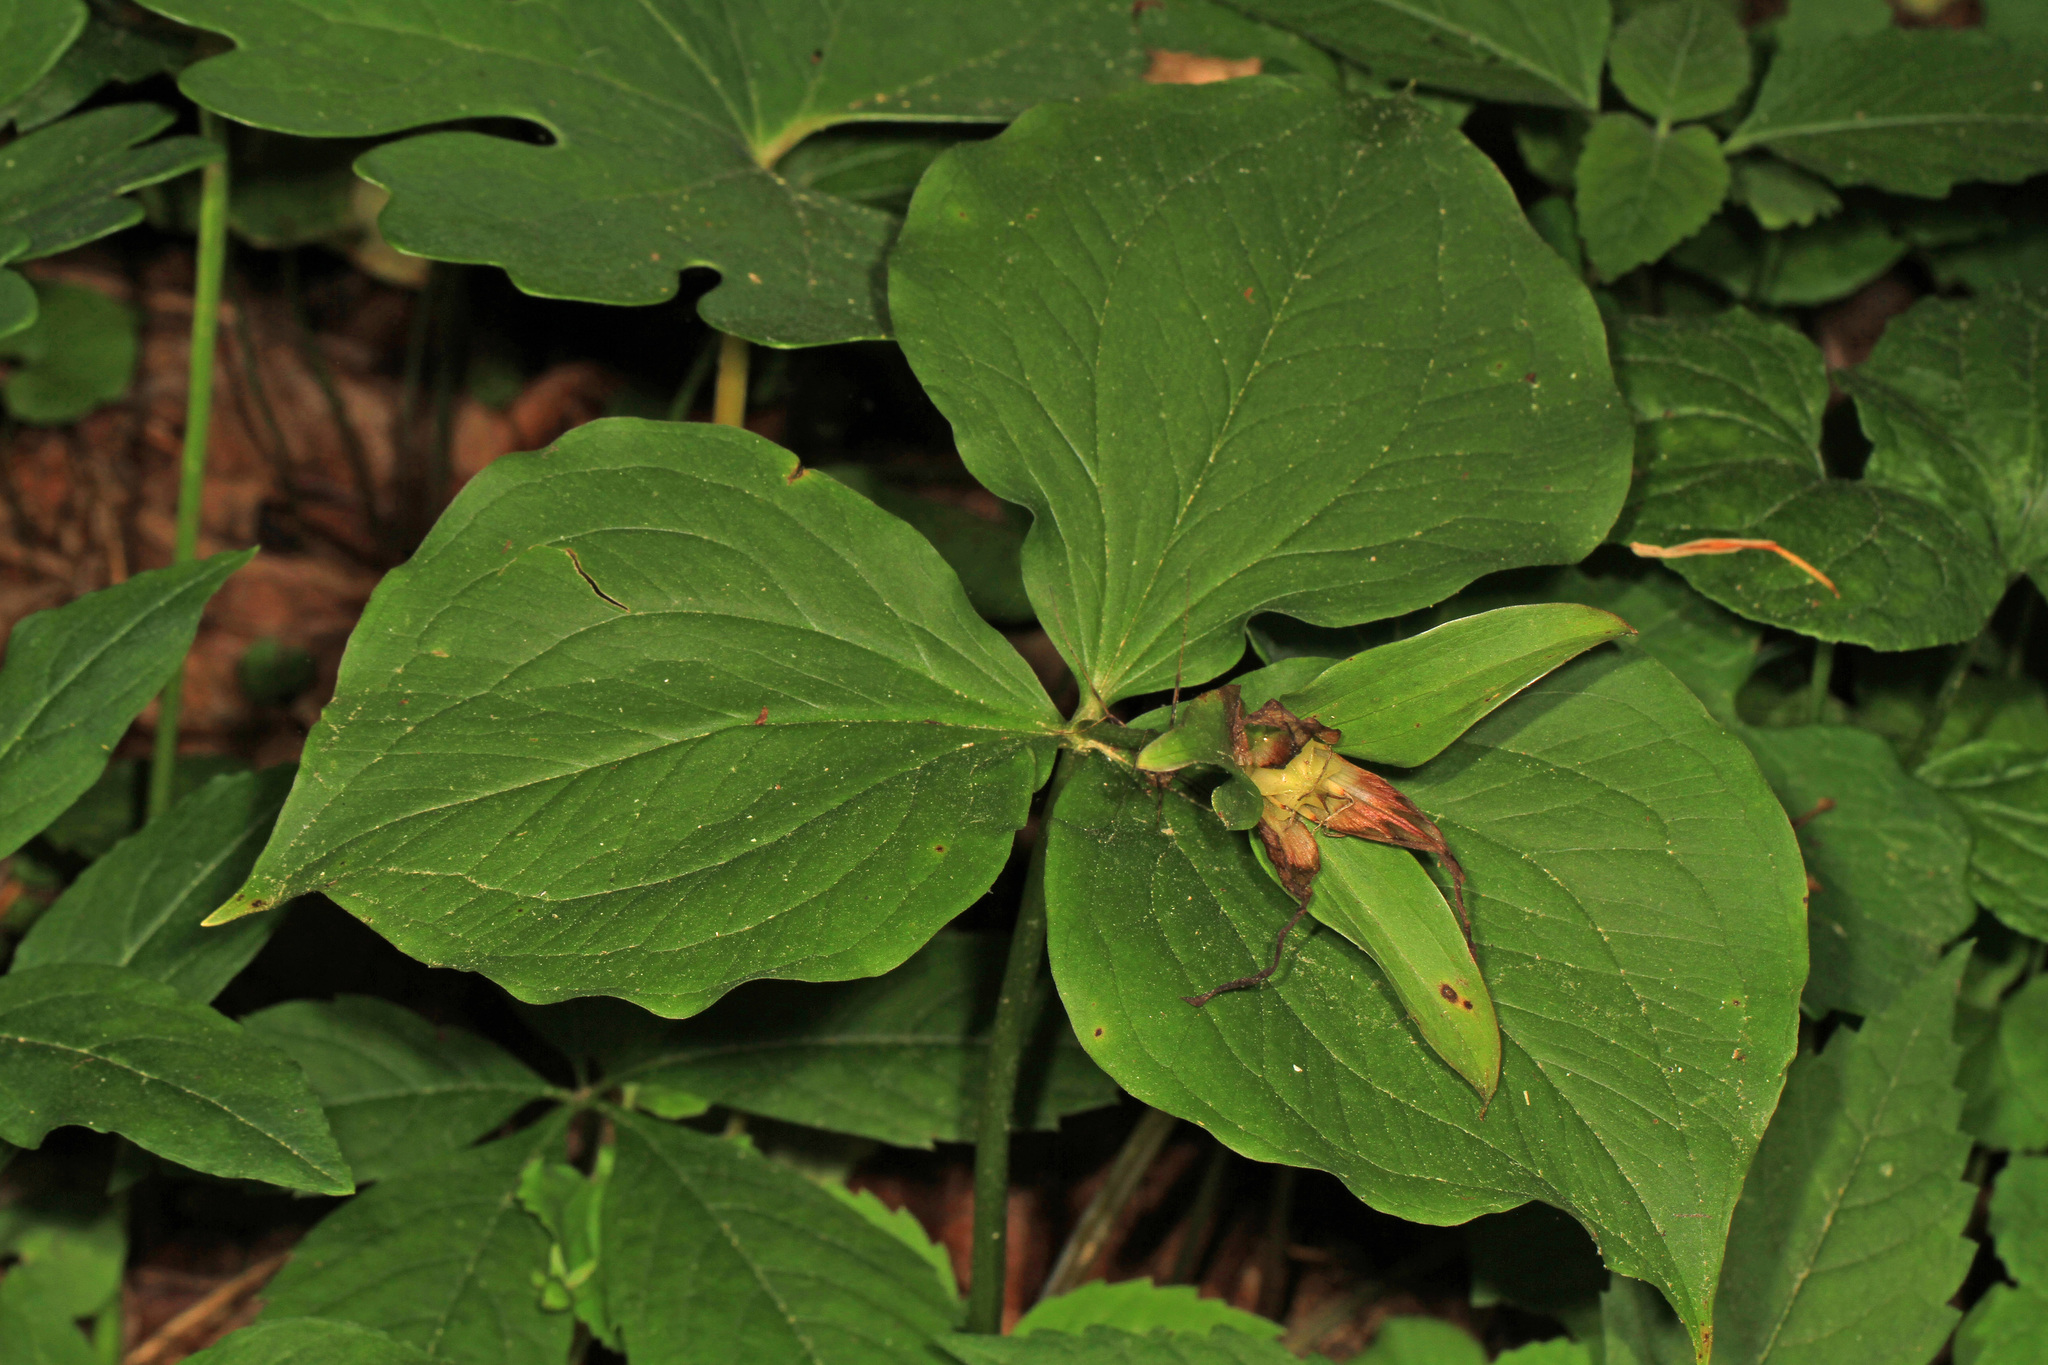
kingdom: Plantae
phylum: Tracheophyta
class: Liliopsida
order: Liliales
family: Melanthiaceae
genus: Trillium
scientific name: Trillium grandiflorum
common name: Great white trillium
